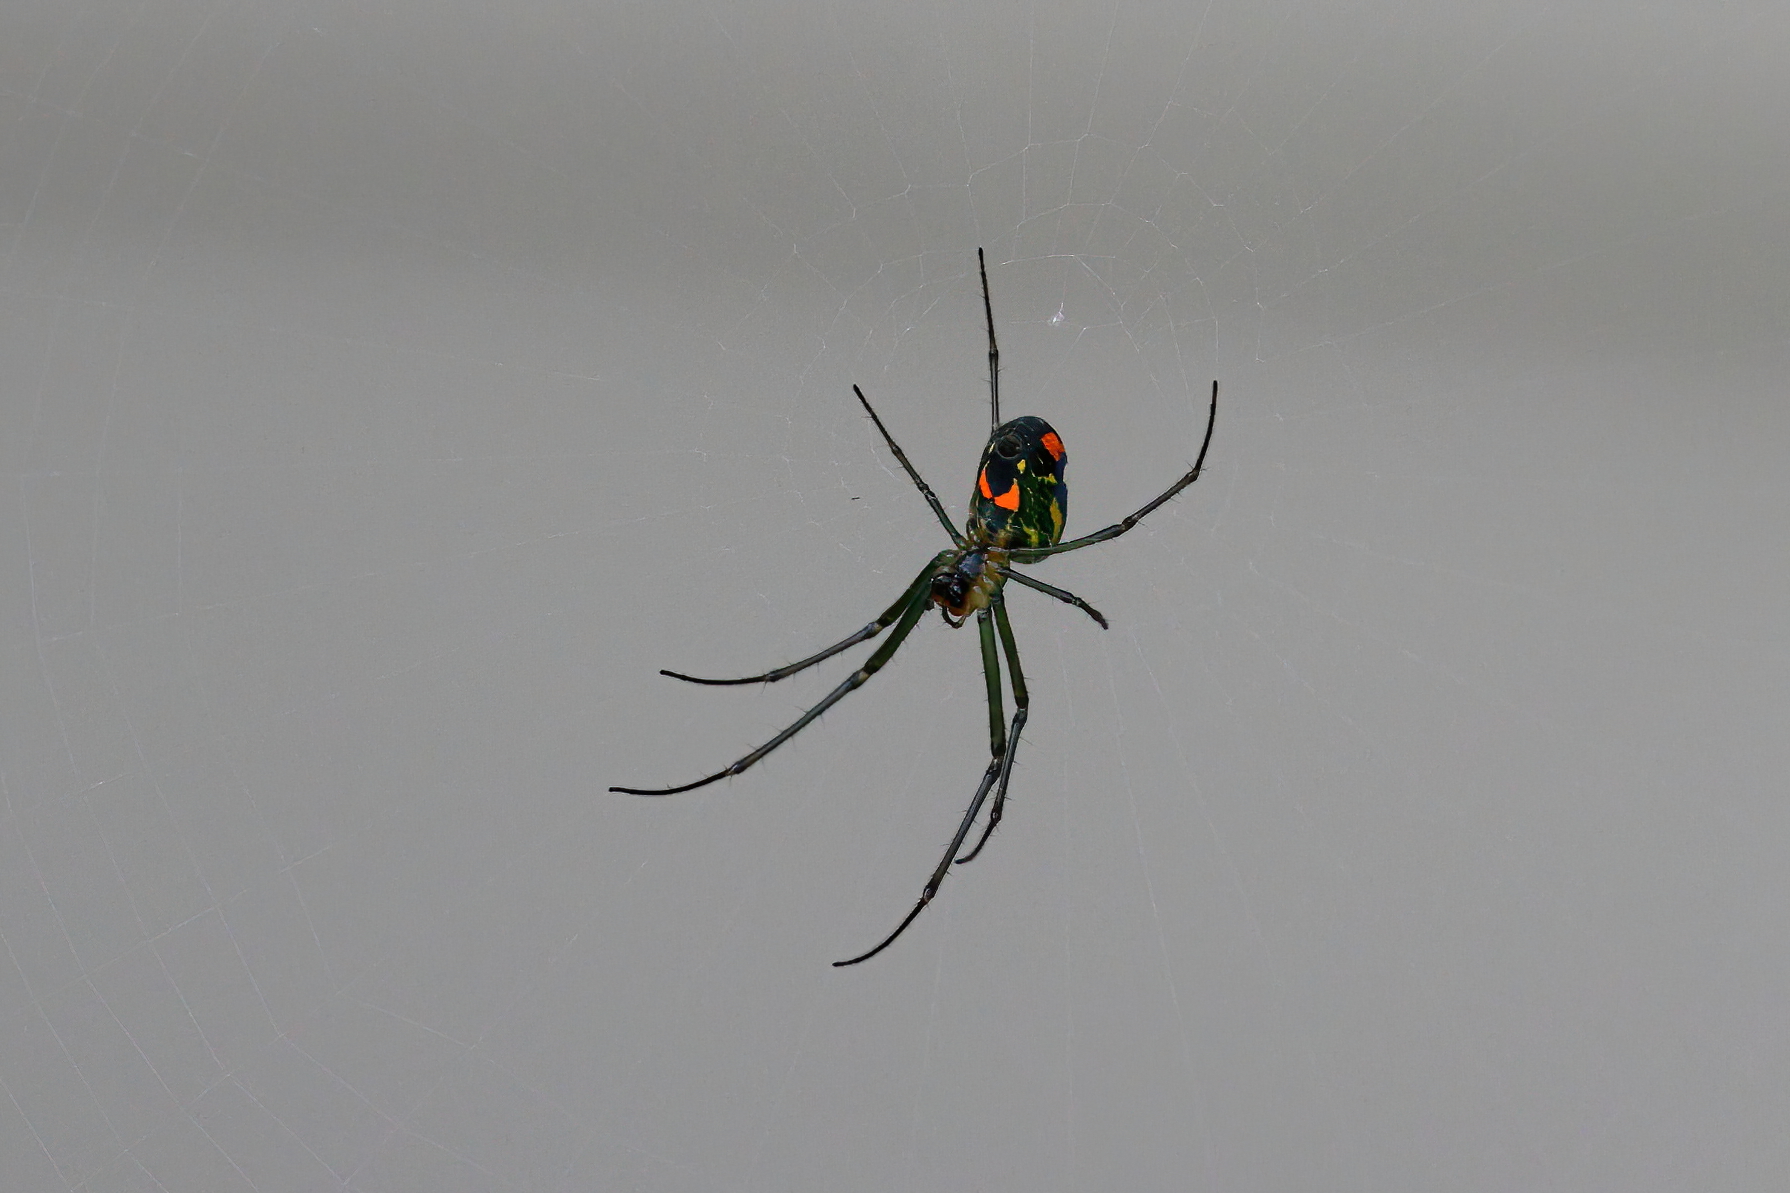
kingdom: Animalia
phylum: Arthropoda
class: Arachnida
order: Araneae
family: Tetragnathidae
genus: Leucauge
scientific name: Leucauge argyrobapta
